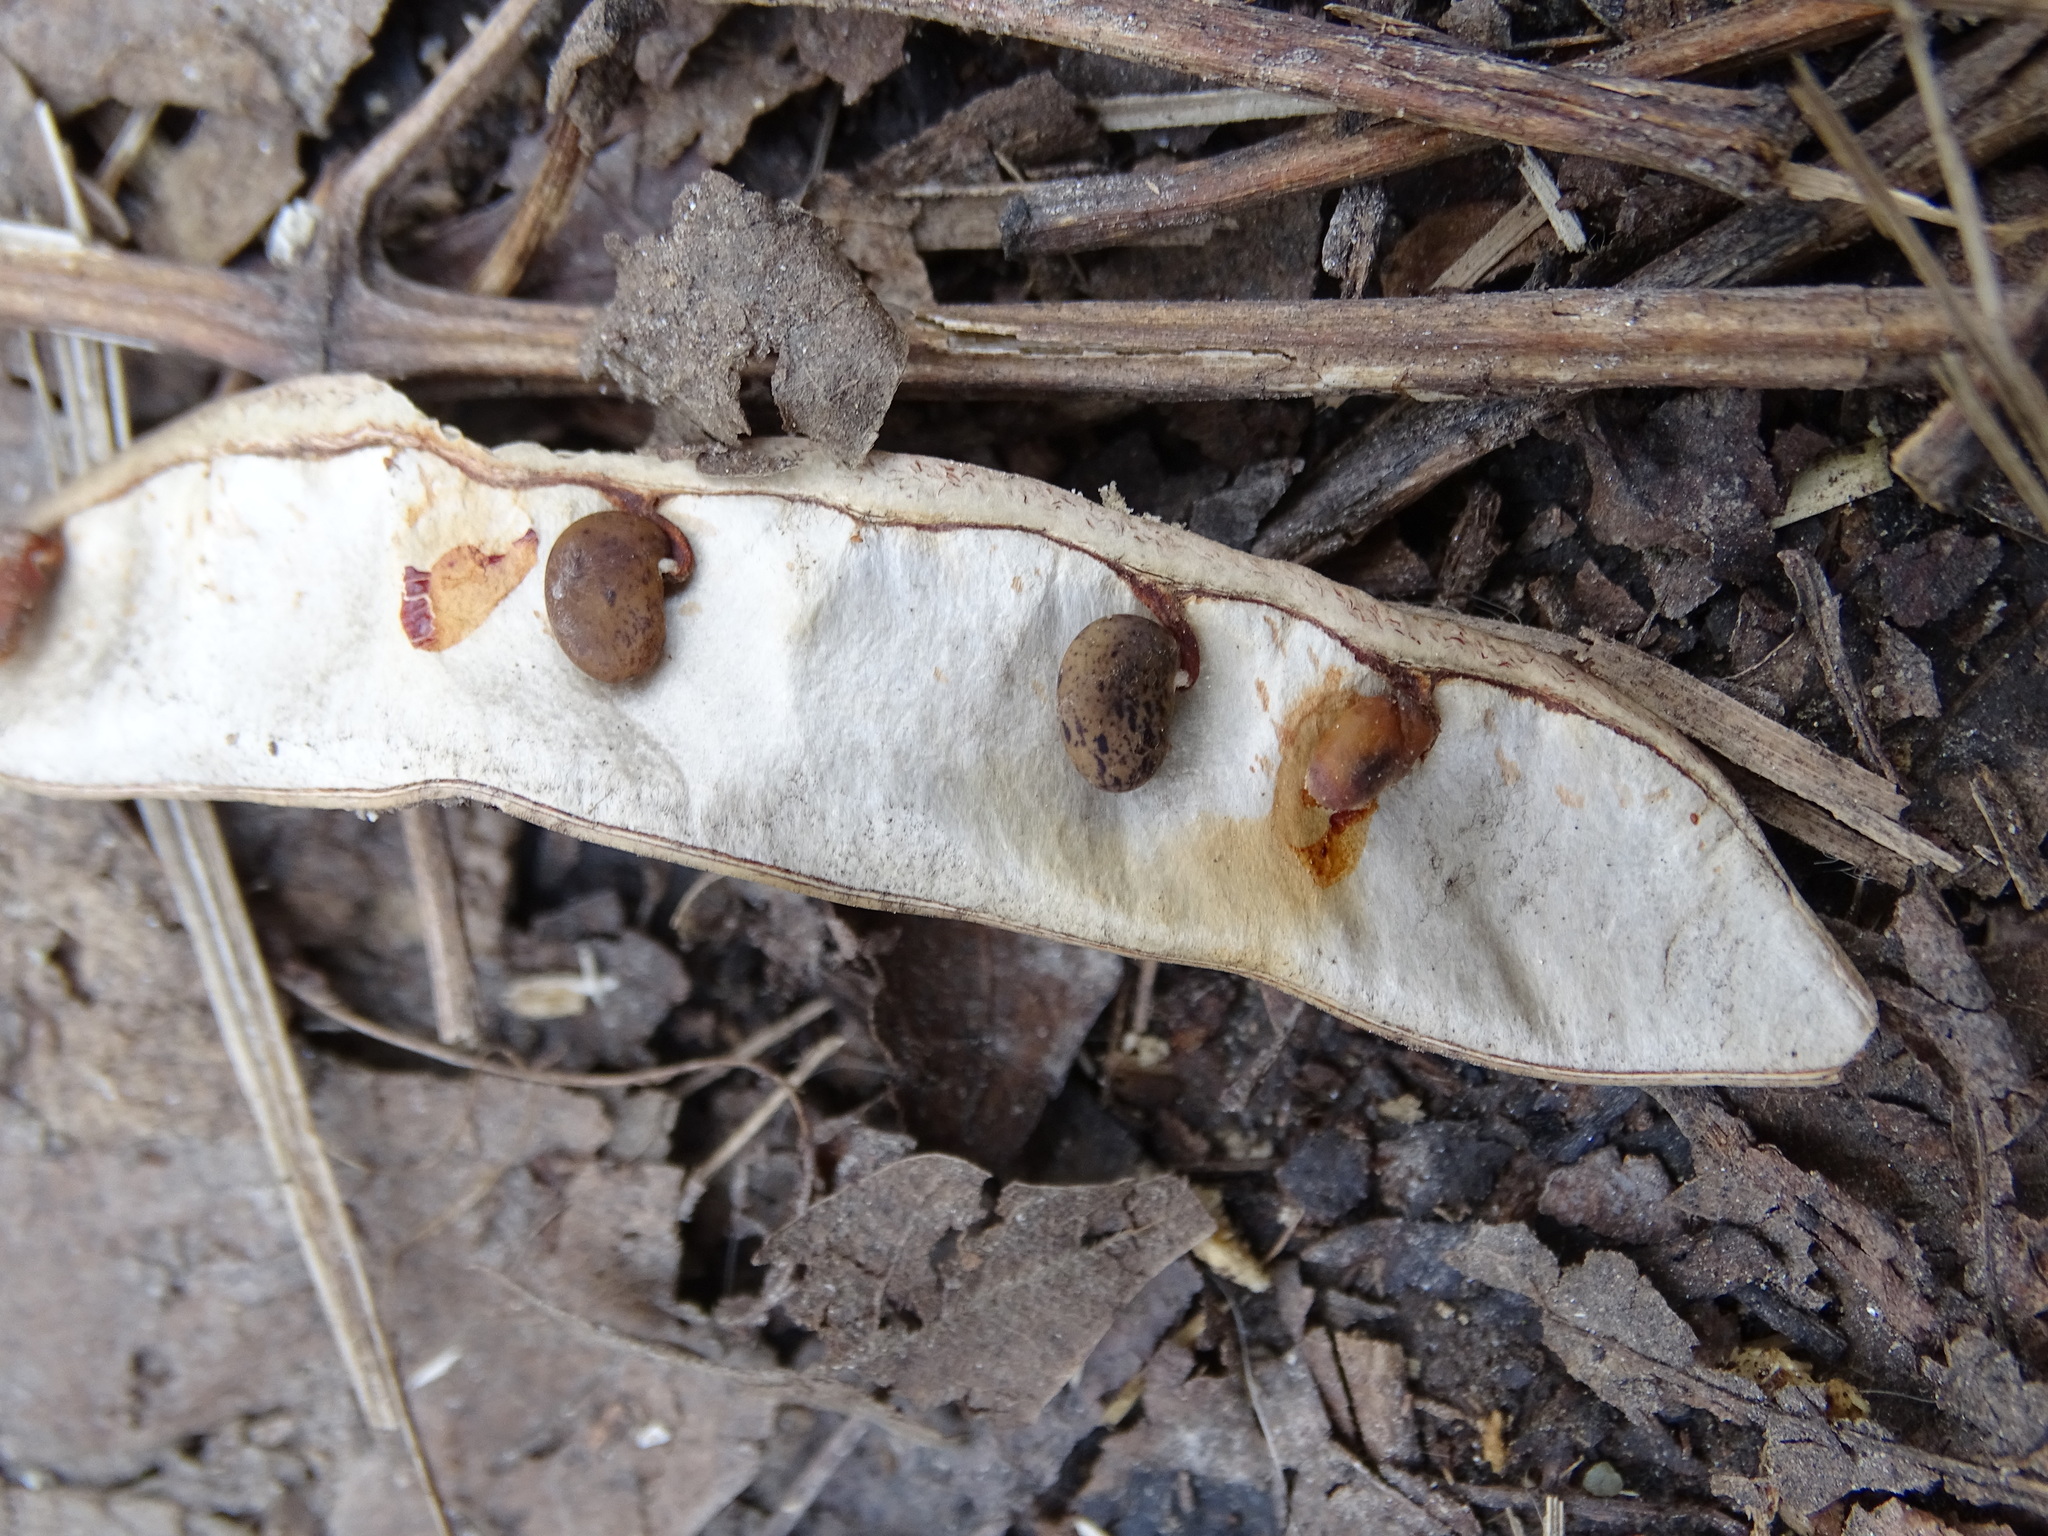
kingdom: Plantae
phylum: Tracheophyta
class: Magnoliopsida
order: Fabales
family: Fabaceae
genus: Robinia
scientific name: Robinia pseudoacacia
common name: Black locust
